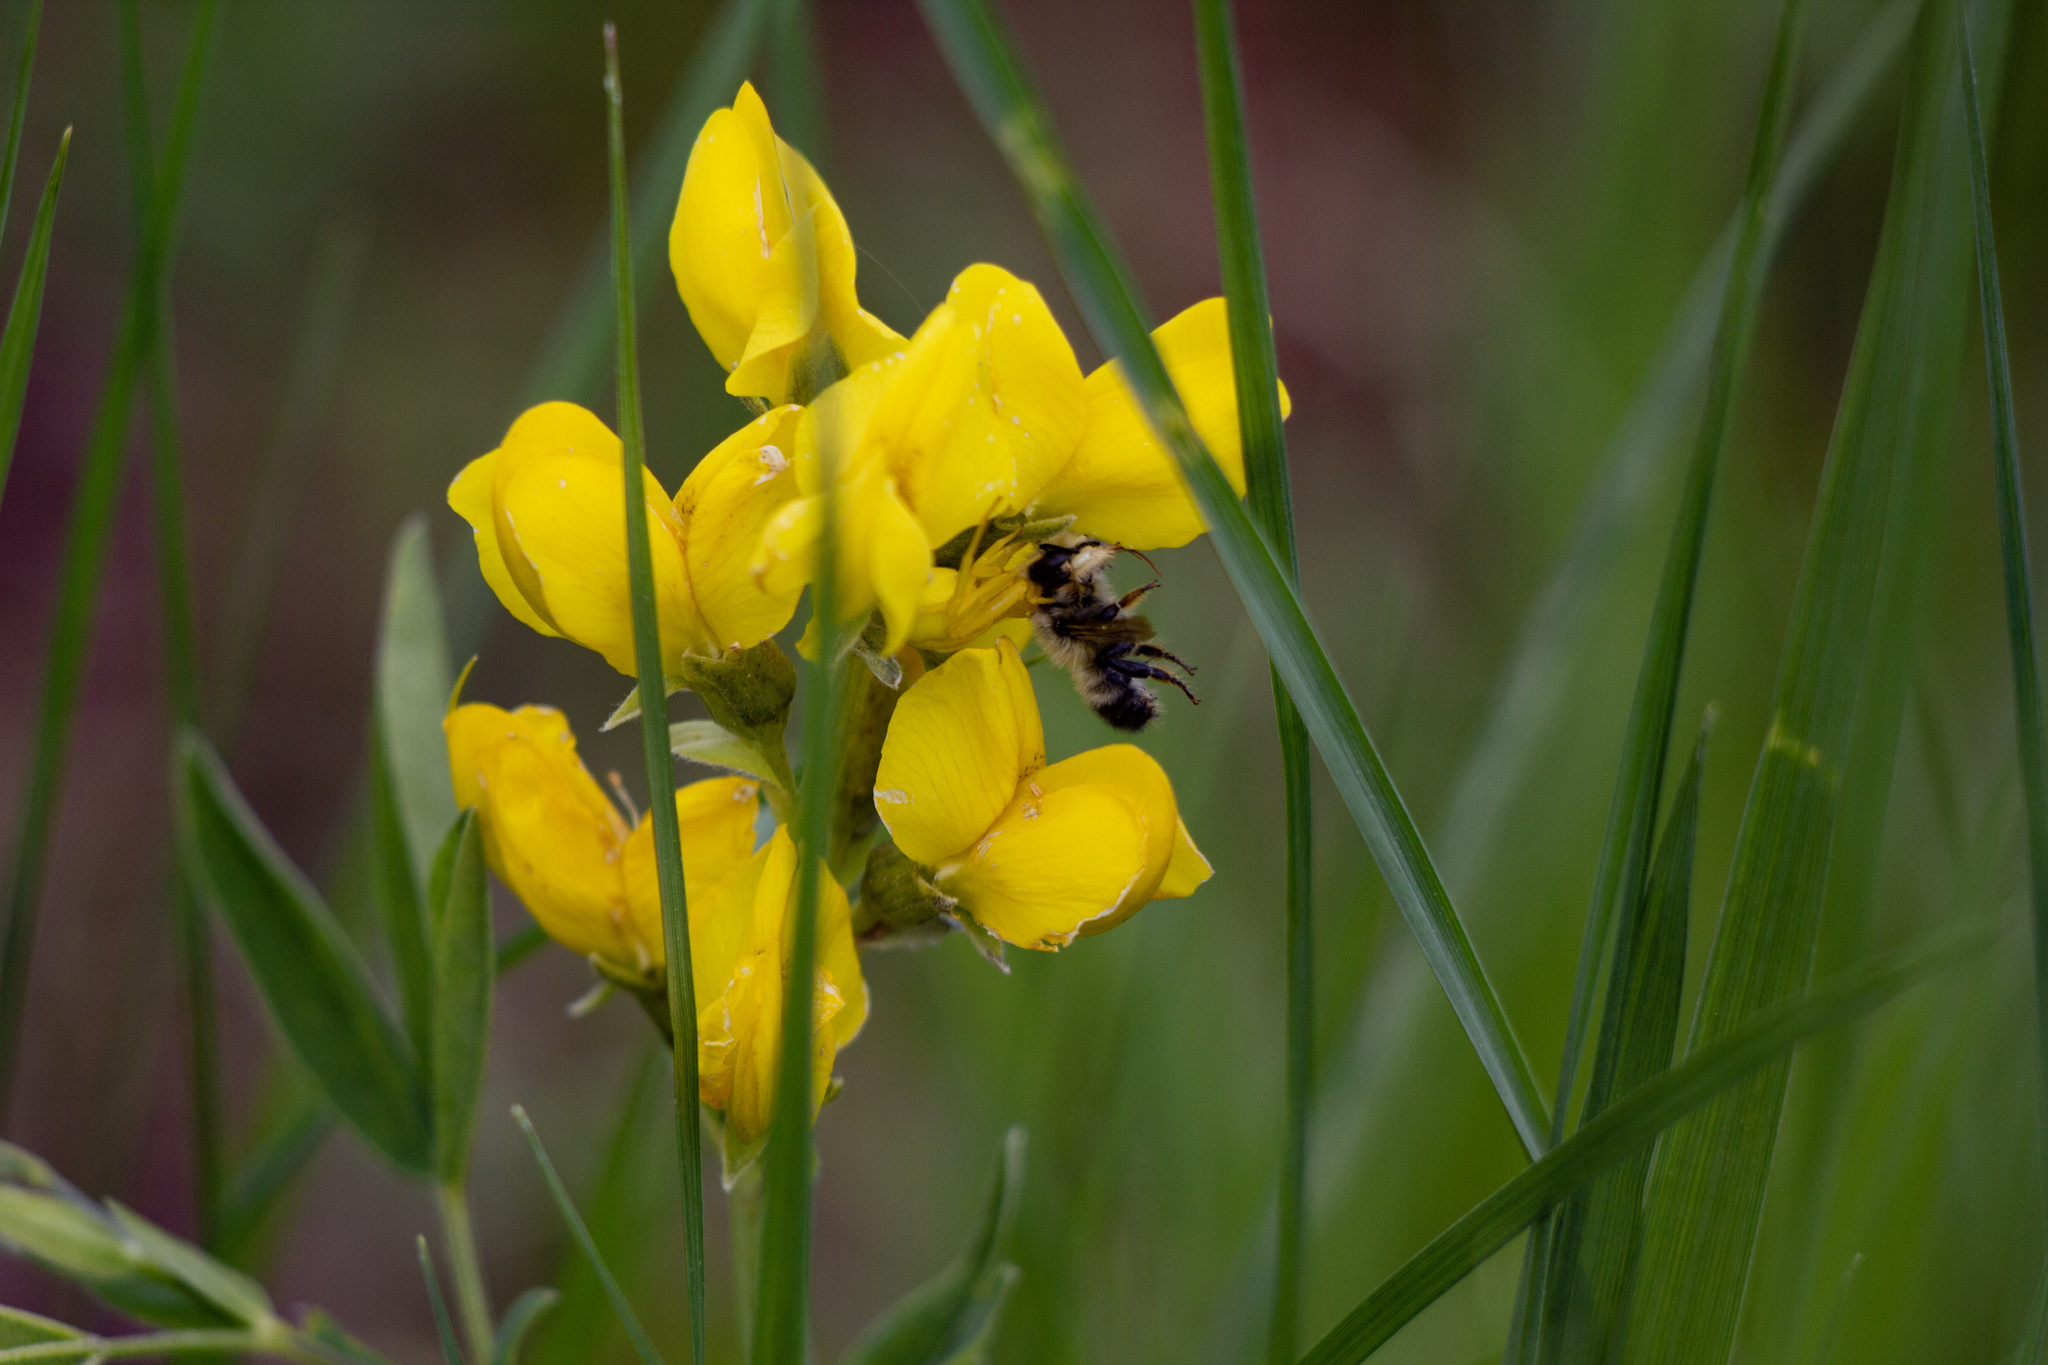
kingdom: Animalia
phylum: Arthropoda
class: Arachnida
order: Araneae
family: Thomisidae
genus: Misumena
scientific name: Misumena vatia
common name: Goldenrod crab spider
